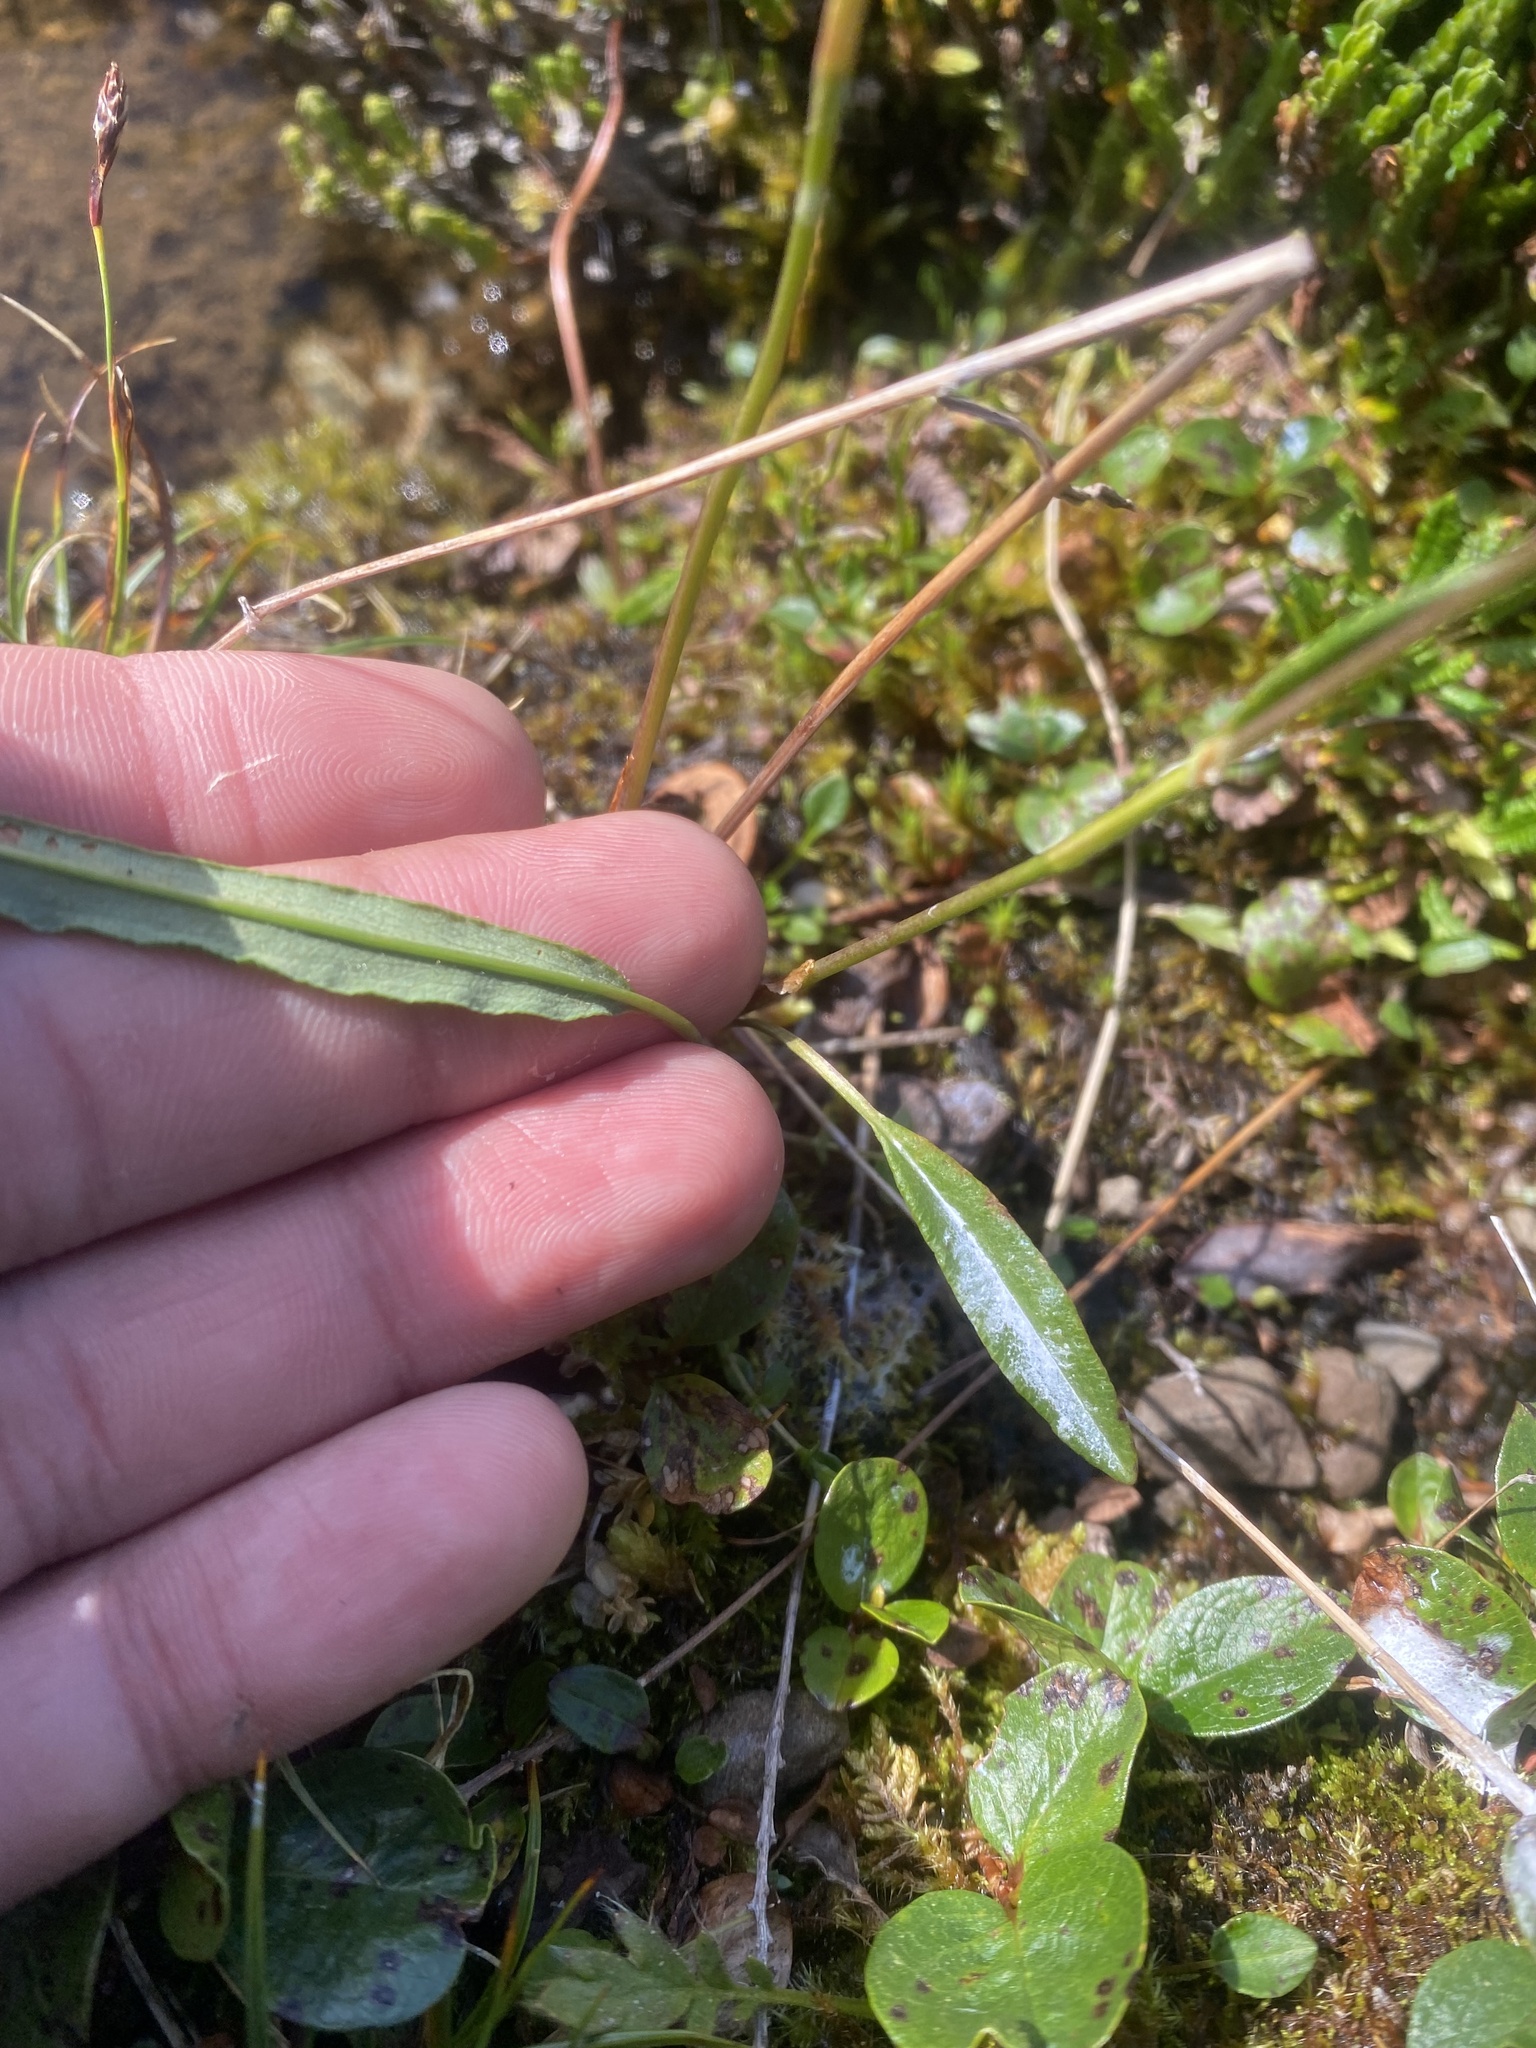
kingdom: Plantae
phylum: Tracheophyta
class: Magnoliopsida
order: Caryophyllales
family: Polygonaceae
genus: Bistorta
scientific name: Bistorta vivipara
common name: Alpine bistort
